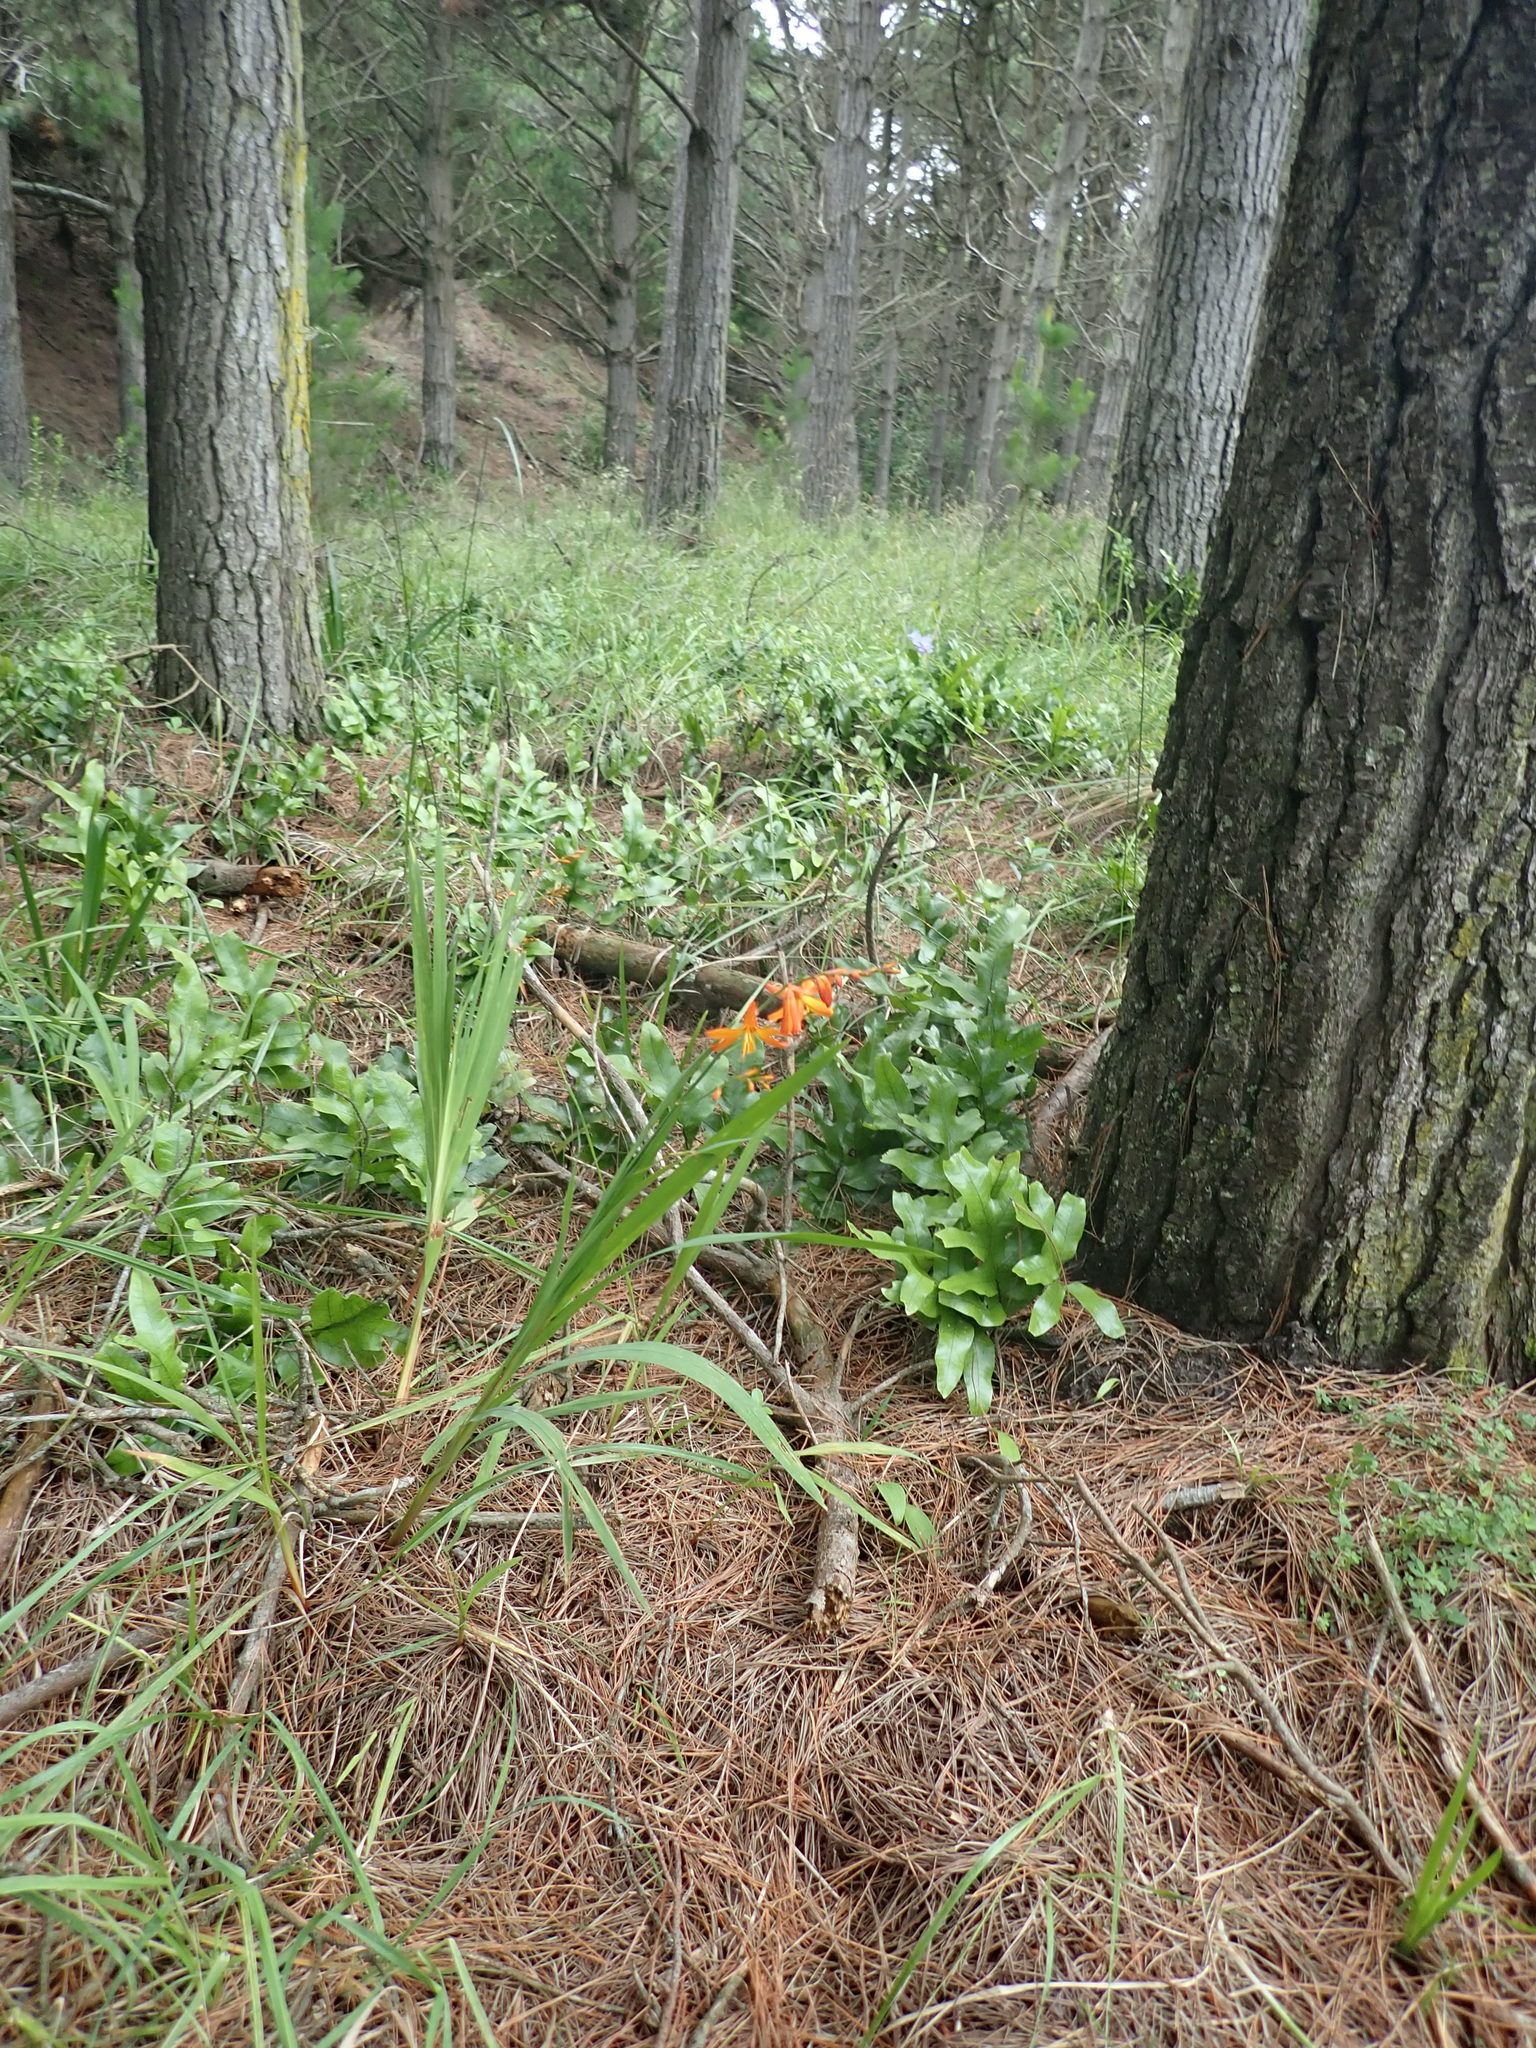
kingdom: Plantae
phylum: Tracheophyta
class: Liliopsida
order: Asparagales
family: Iridaceae
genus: Crocosmia
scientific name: Crocosmia crocosmiiflora
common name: Montbretia
